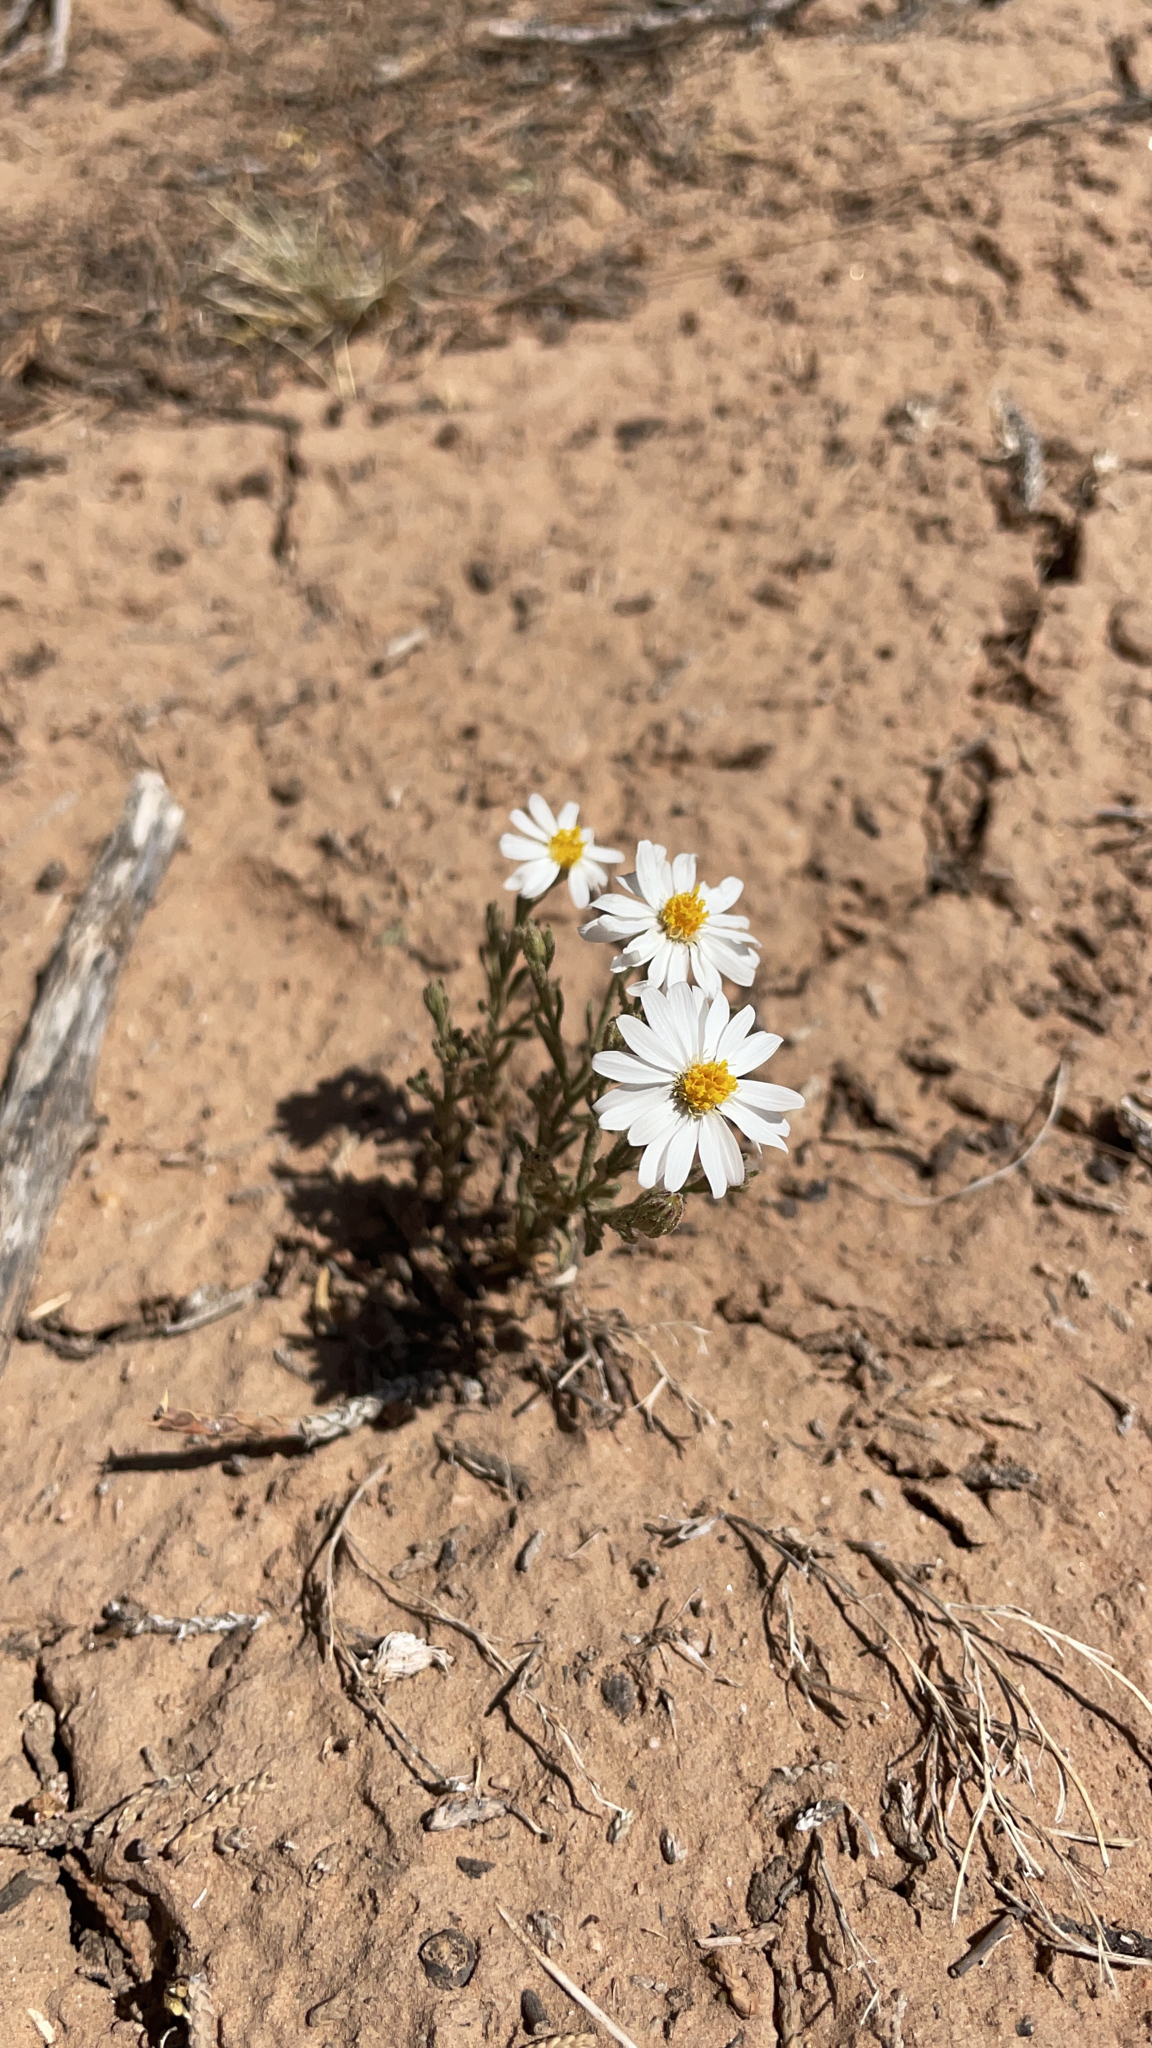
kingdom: Plantae
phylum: Tracheophyta
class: Magnoliopsida
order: Asterales
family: Asteraceae
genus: Chaetopappa
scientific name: Chaetopappa ericoides
